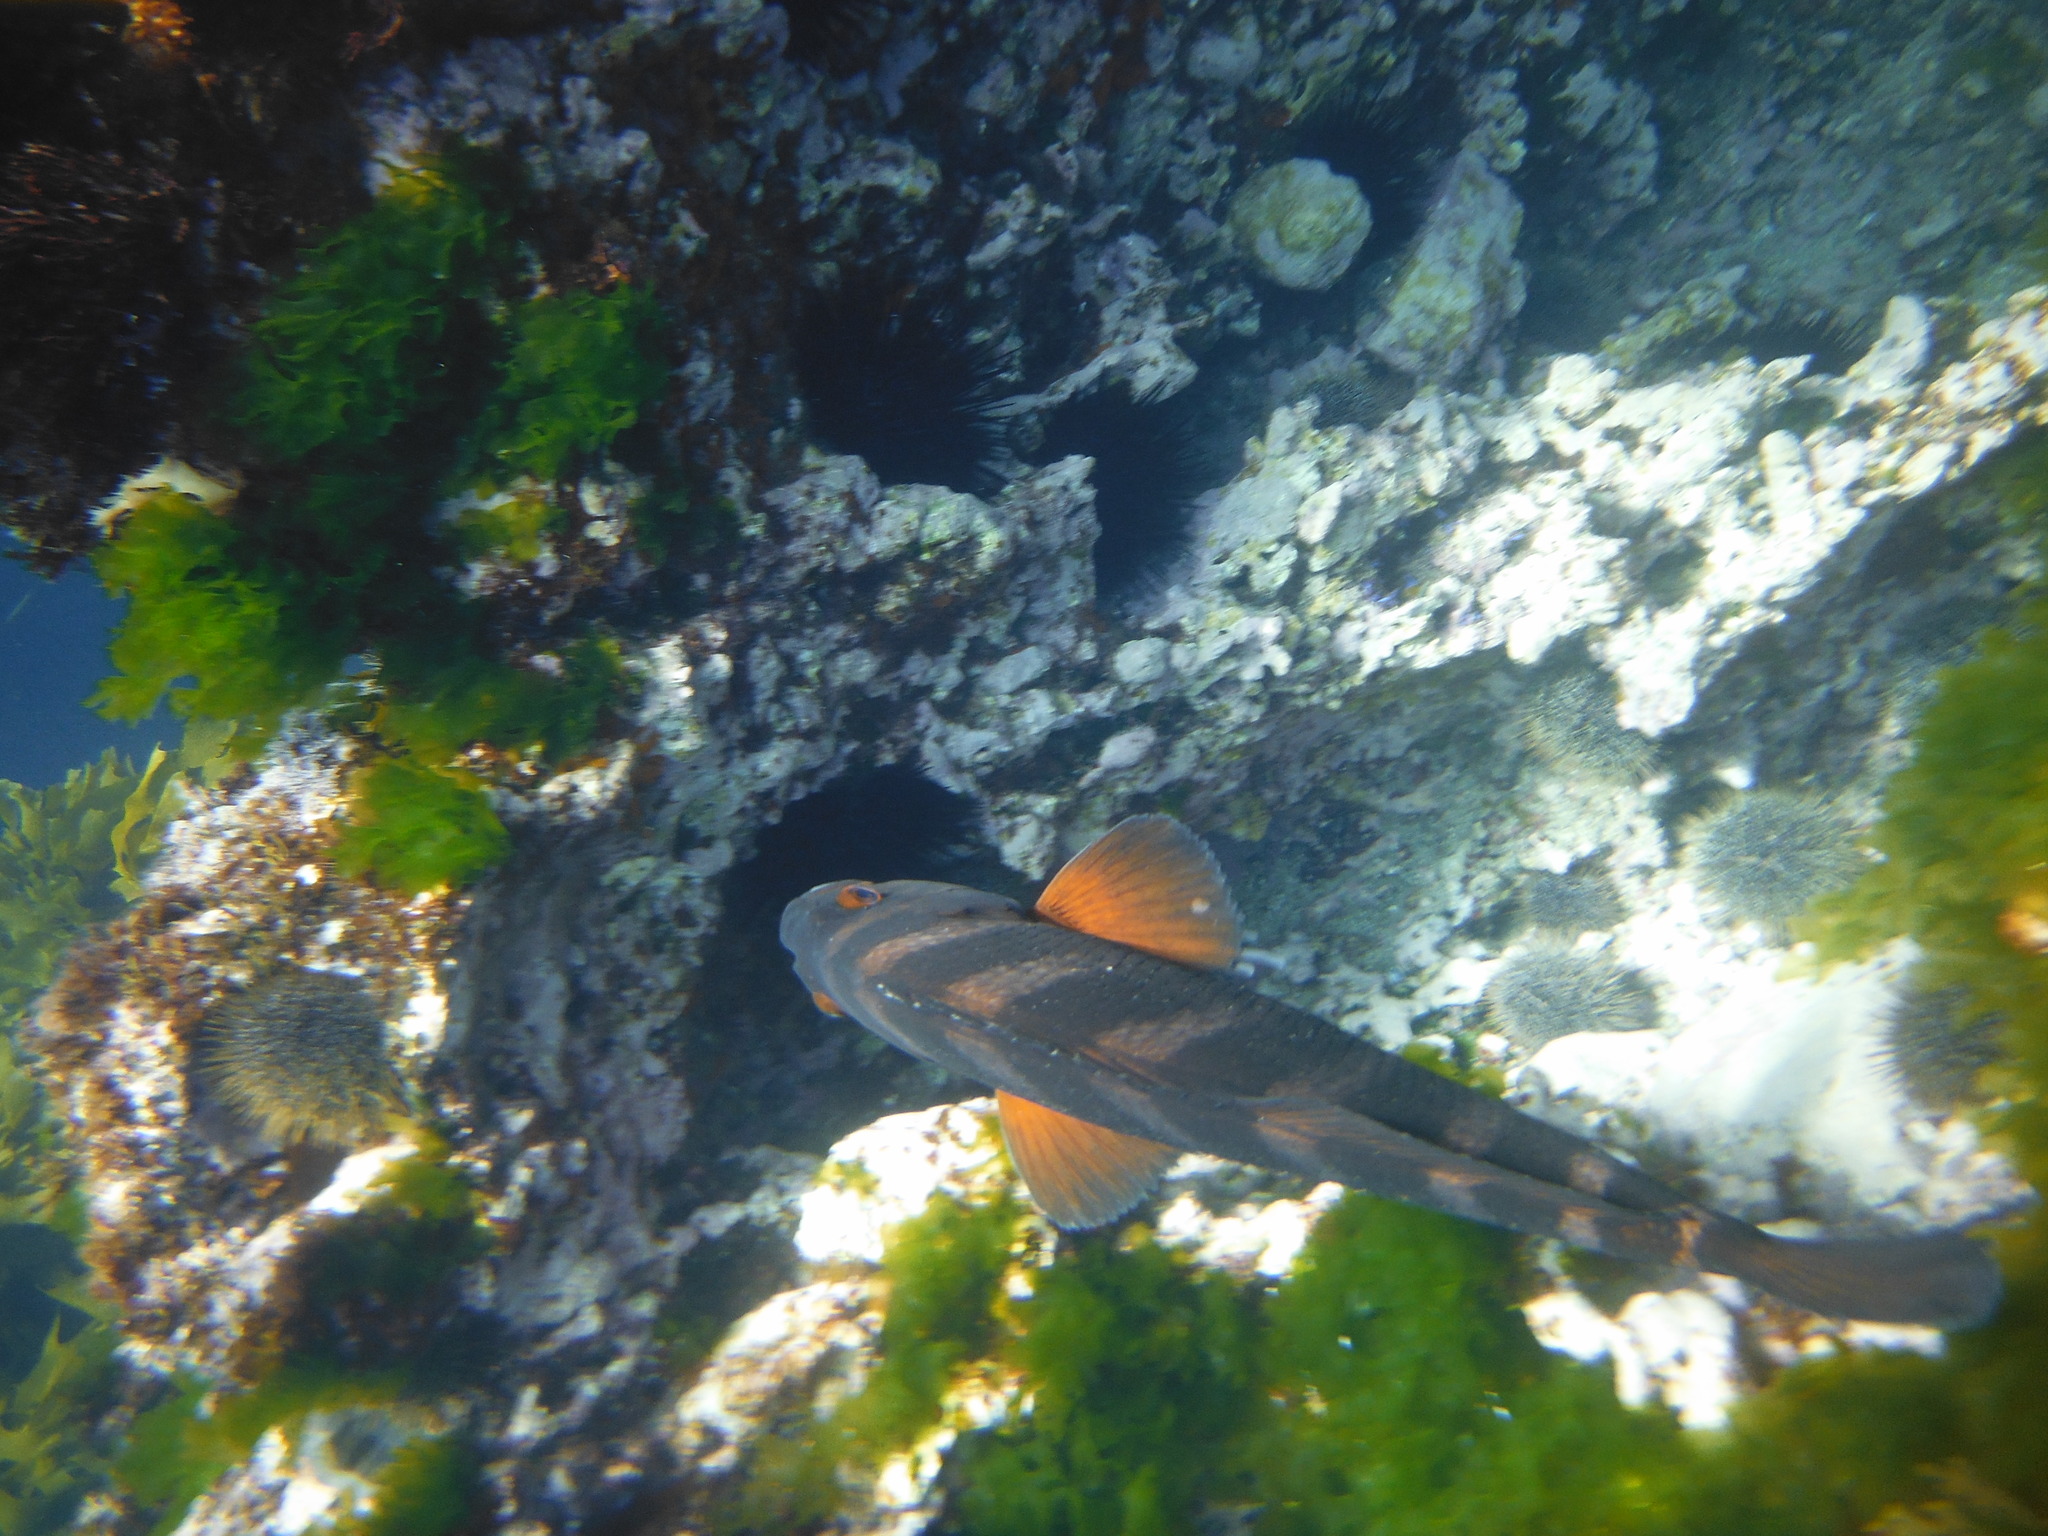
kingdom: Animalia
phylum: Chordata
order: Perciformes
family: Cheilodactylidae
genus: Cheilodactylus
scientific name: Cheilodactylus spectabilis
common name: Red moki
